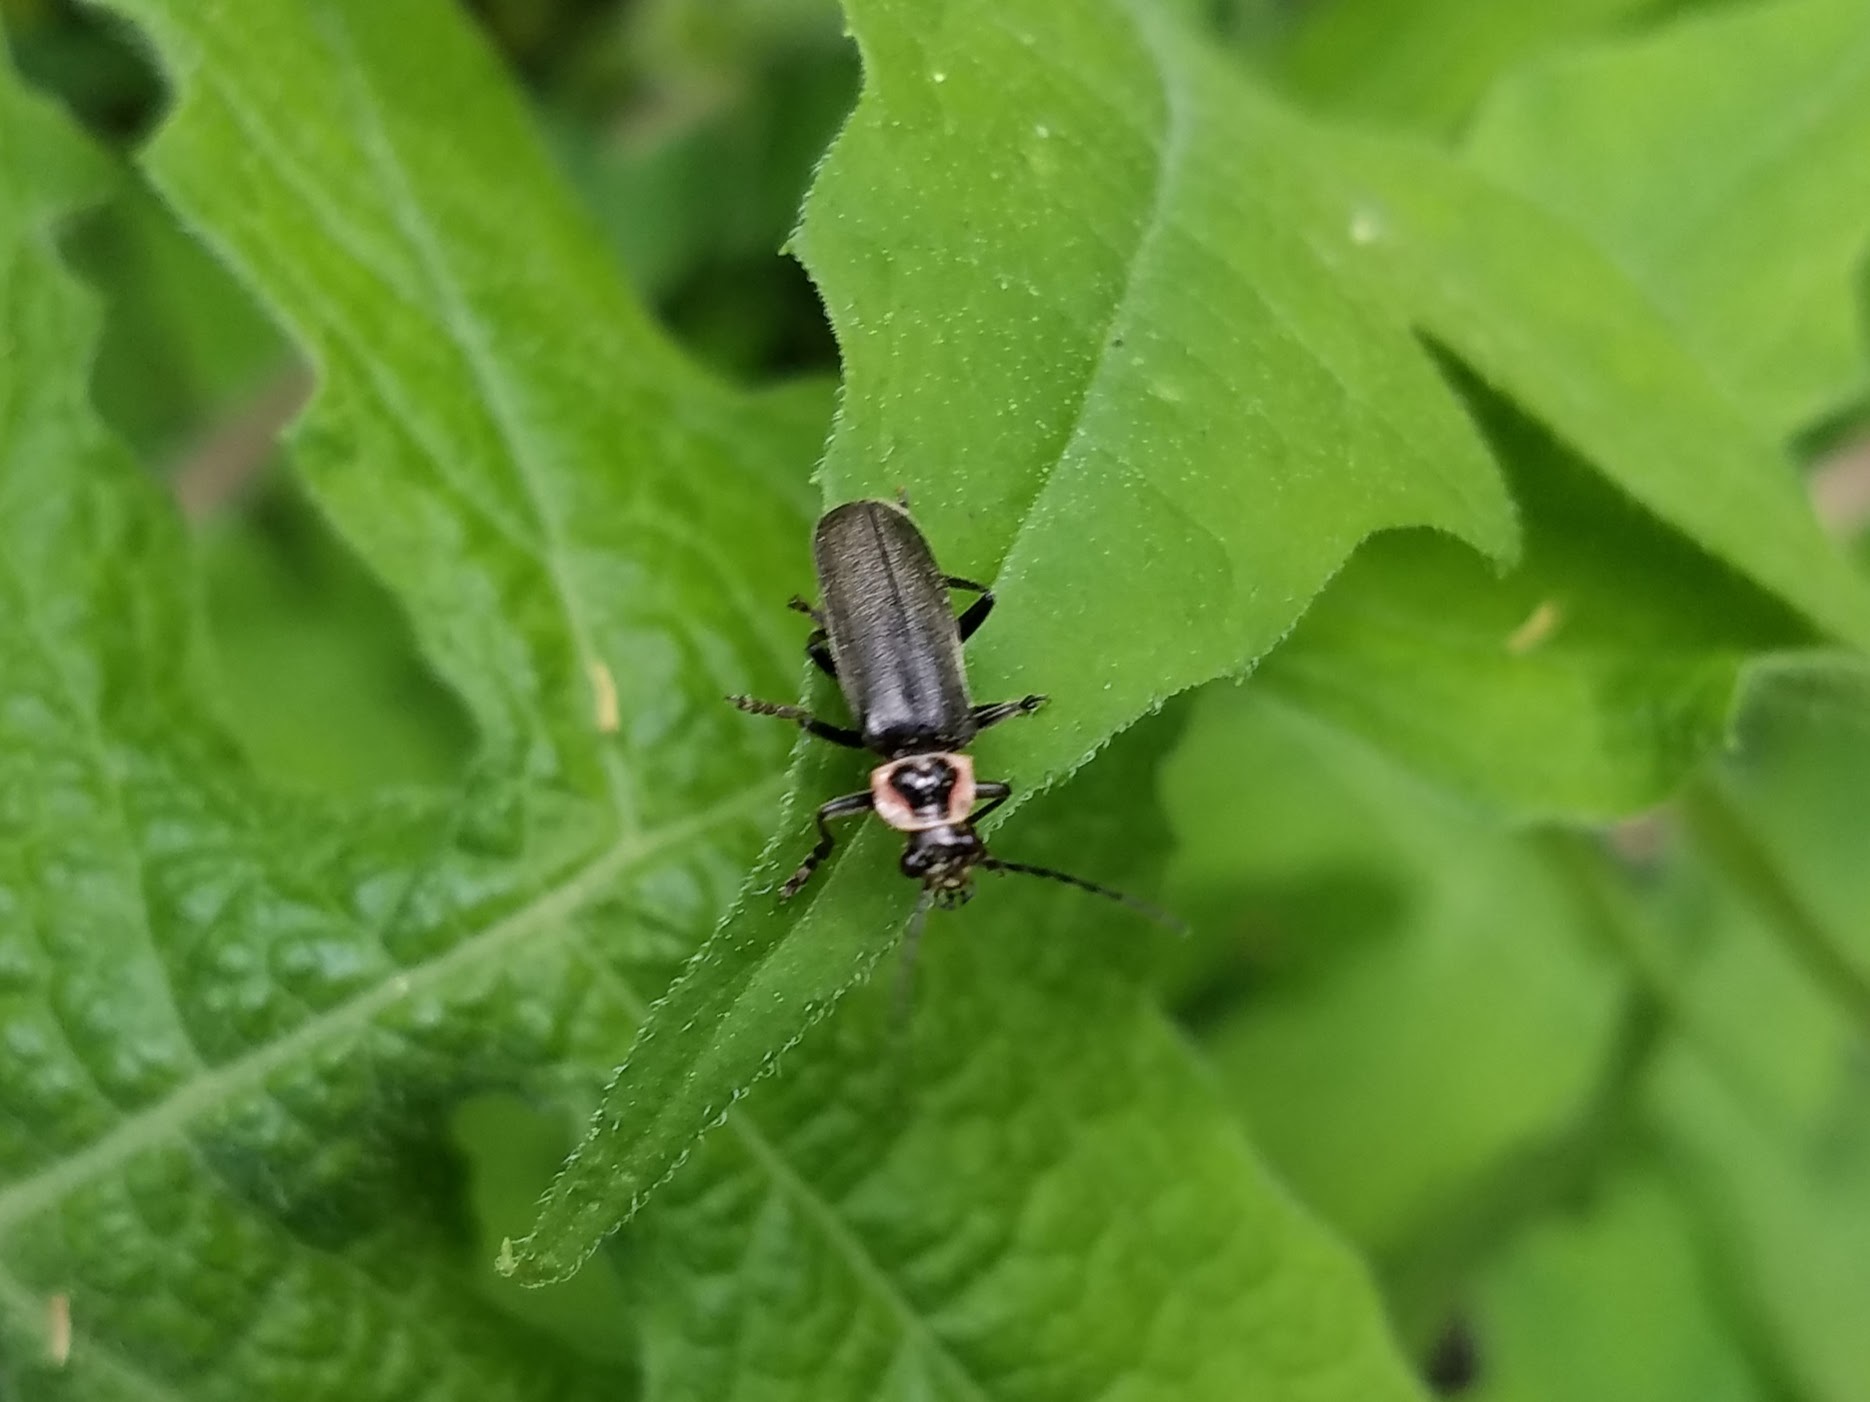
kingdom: Animalia
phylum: Arthropoda
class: Insecta
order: Coleoptera
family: Cantharidae
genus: Atalantycha
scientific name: Atalantycha neglecta
